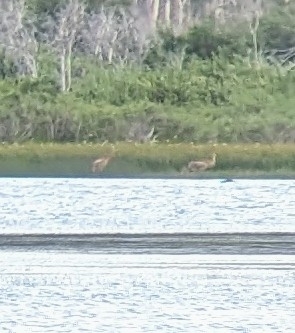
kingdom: Animalia
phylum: Chordata
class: Aves
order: Gruiformes
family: Gruidae
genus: Grus
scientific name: Grus canadensis
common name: Sandhill crane
